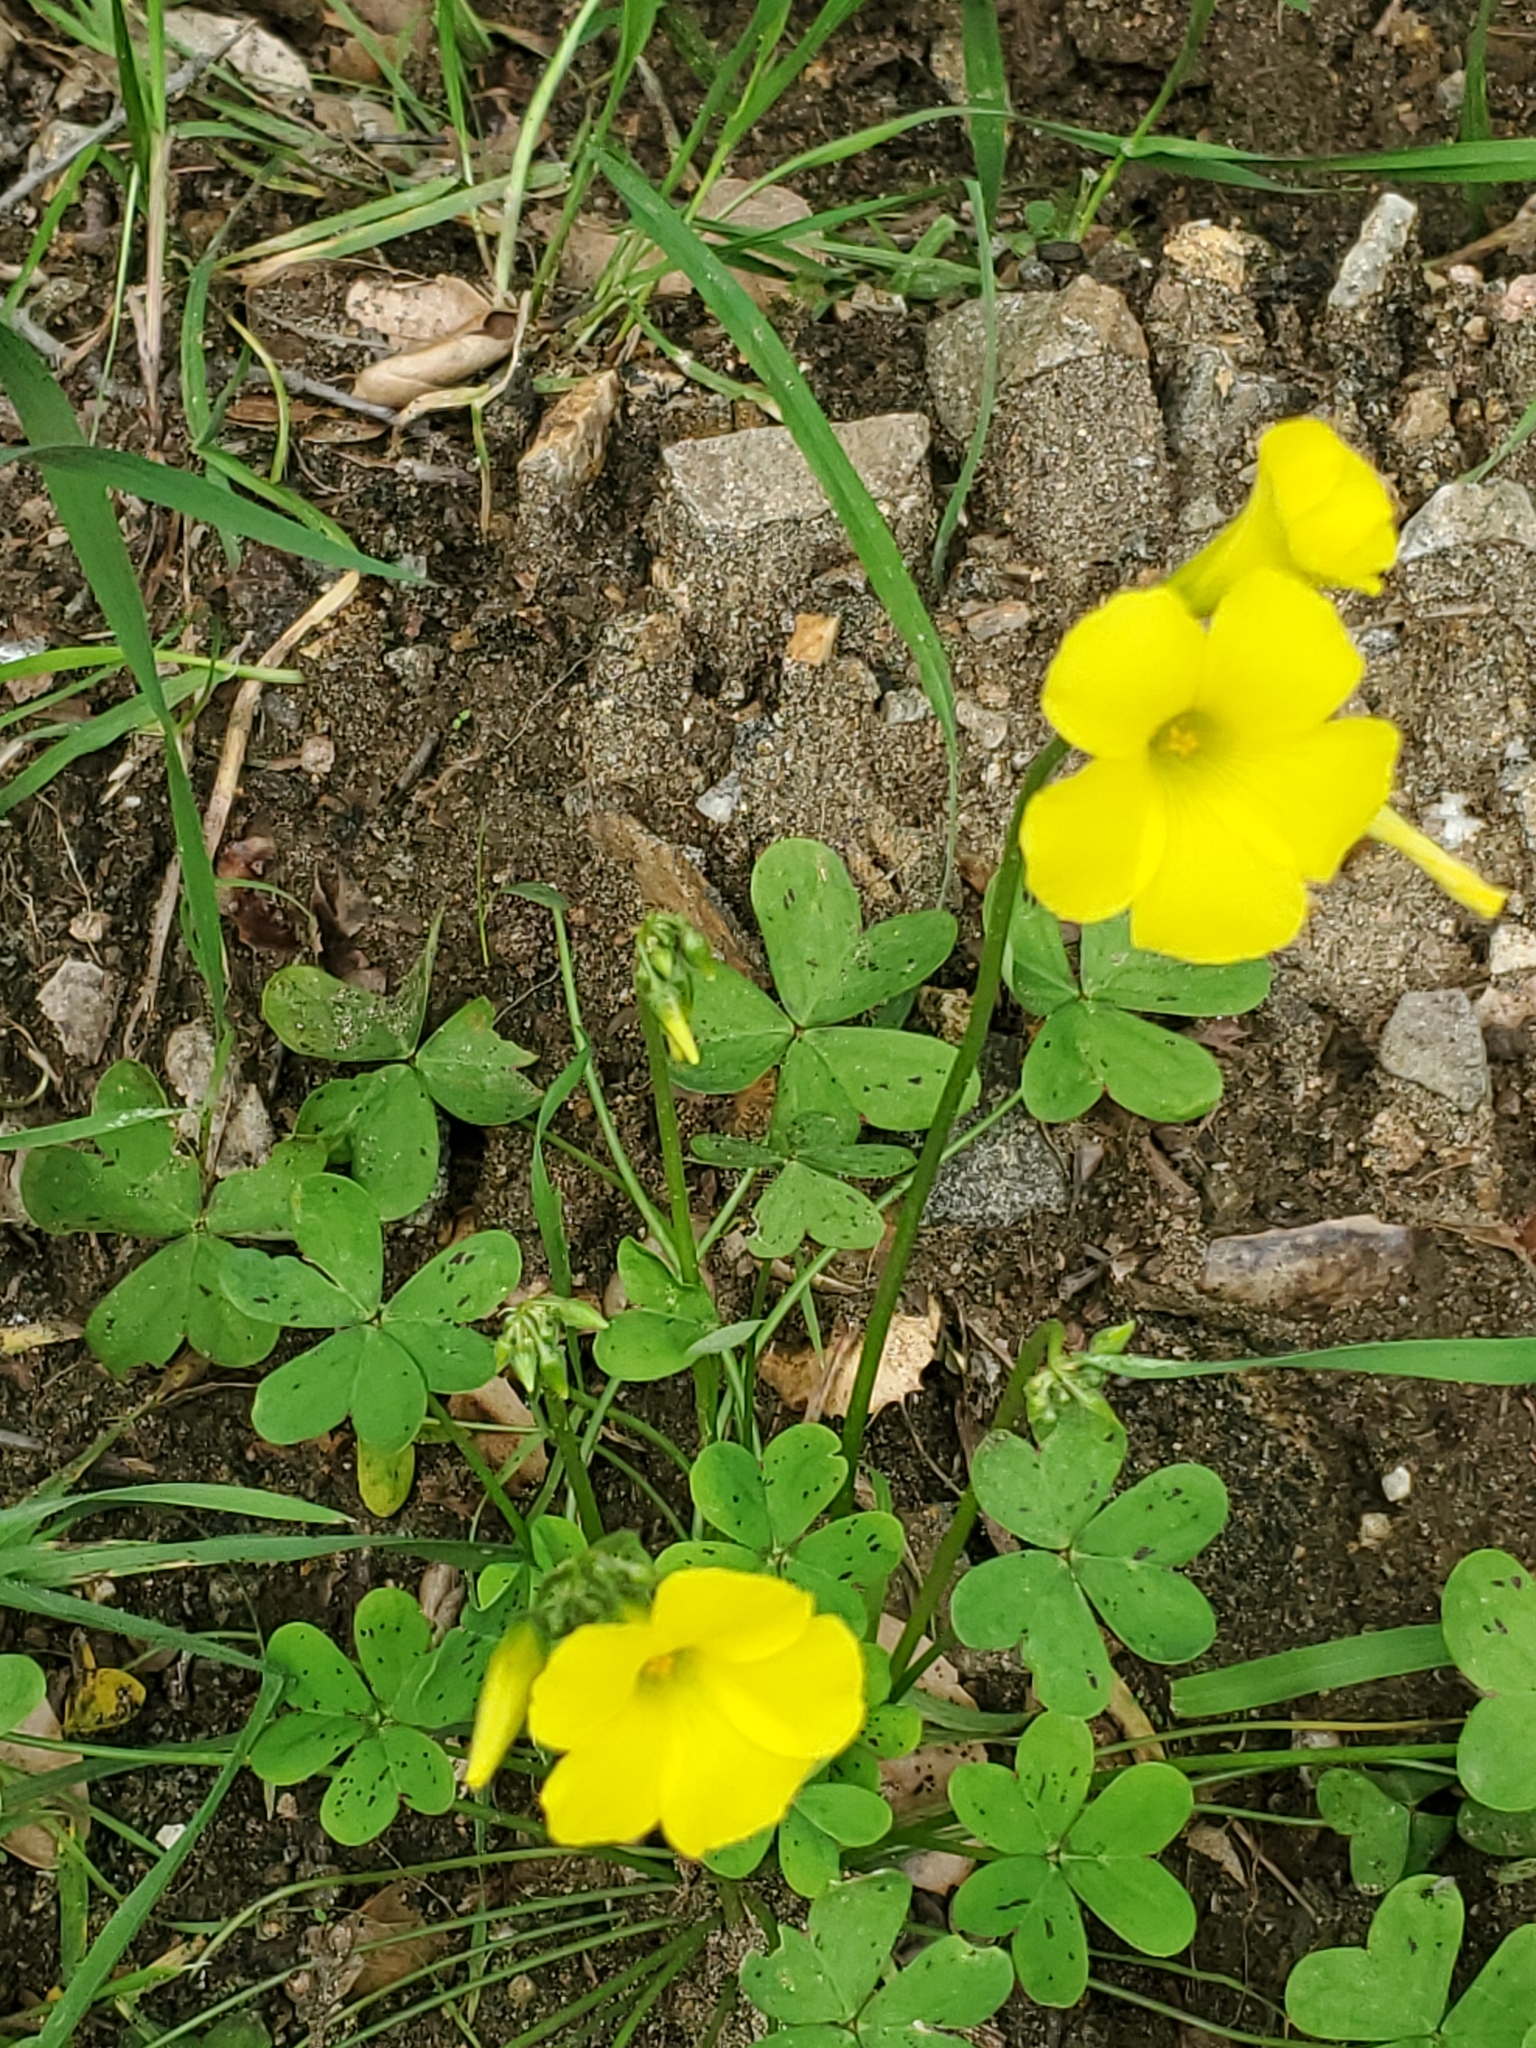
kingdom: Plantae
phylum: Tracheophyta
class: Magnoliopsida
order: Oxalidales
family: Oxalidaceae
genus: Oxalis
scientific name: Oxalis pes-caprae
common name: Bermuda-buttercup
